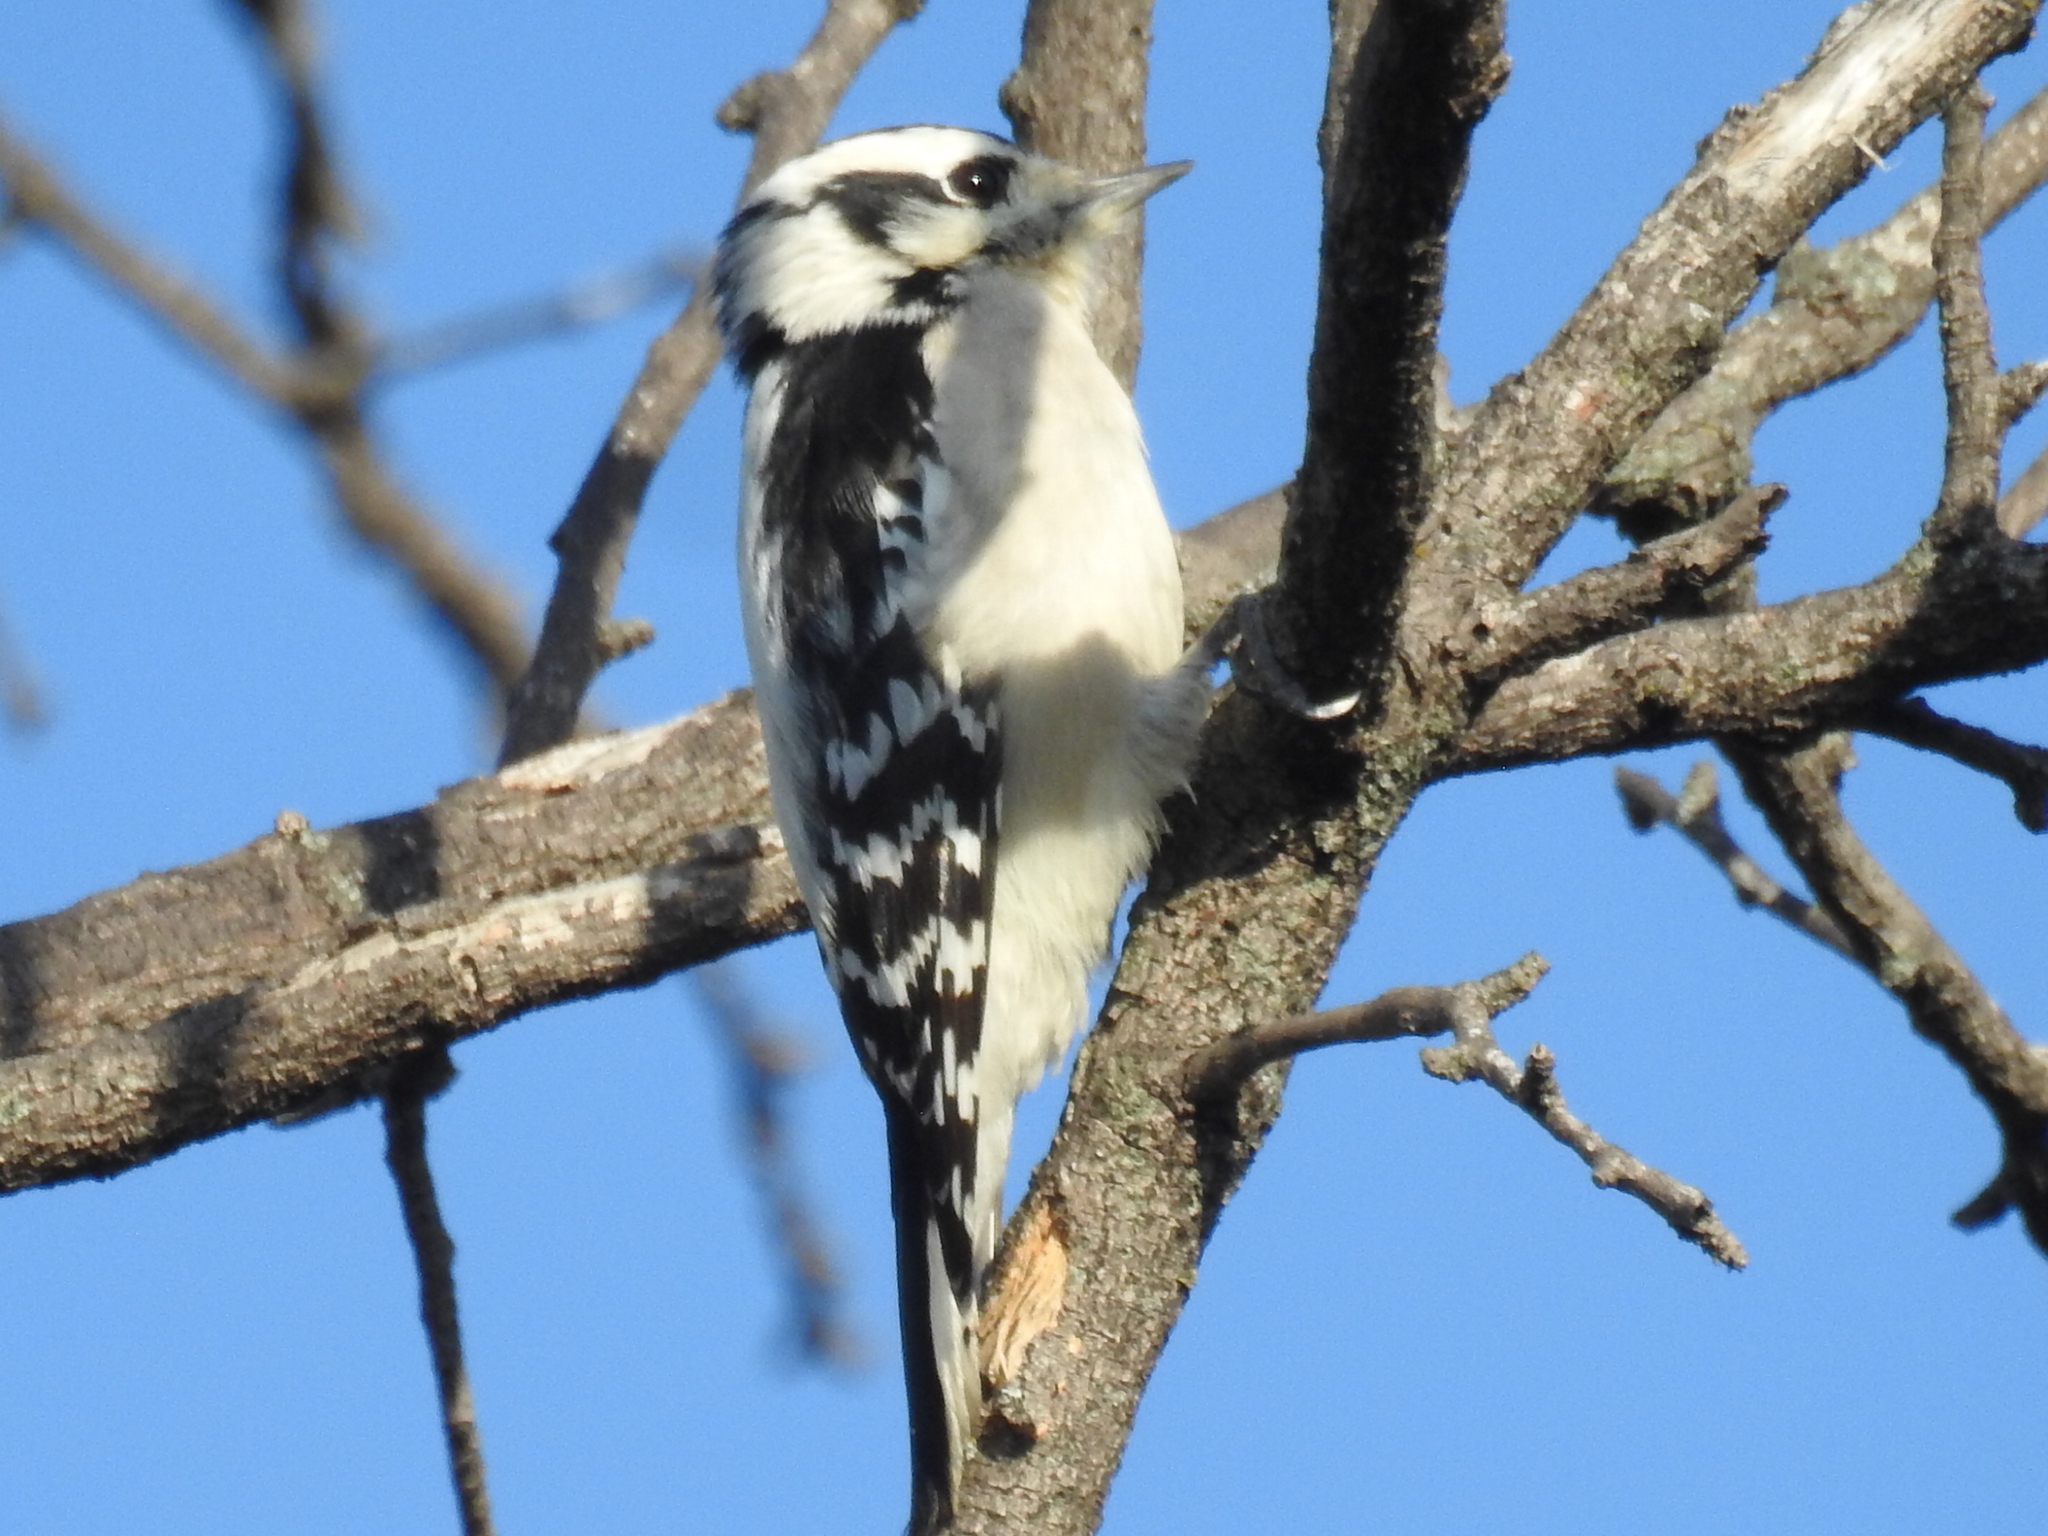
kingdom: Animalia
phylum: Chordata
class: Aves
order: Piciformes
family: Picidae
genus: Dryobates
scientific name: Dryobates pubescens
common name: Downy woodpecker
